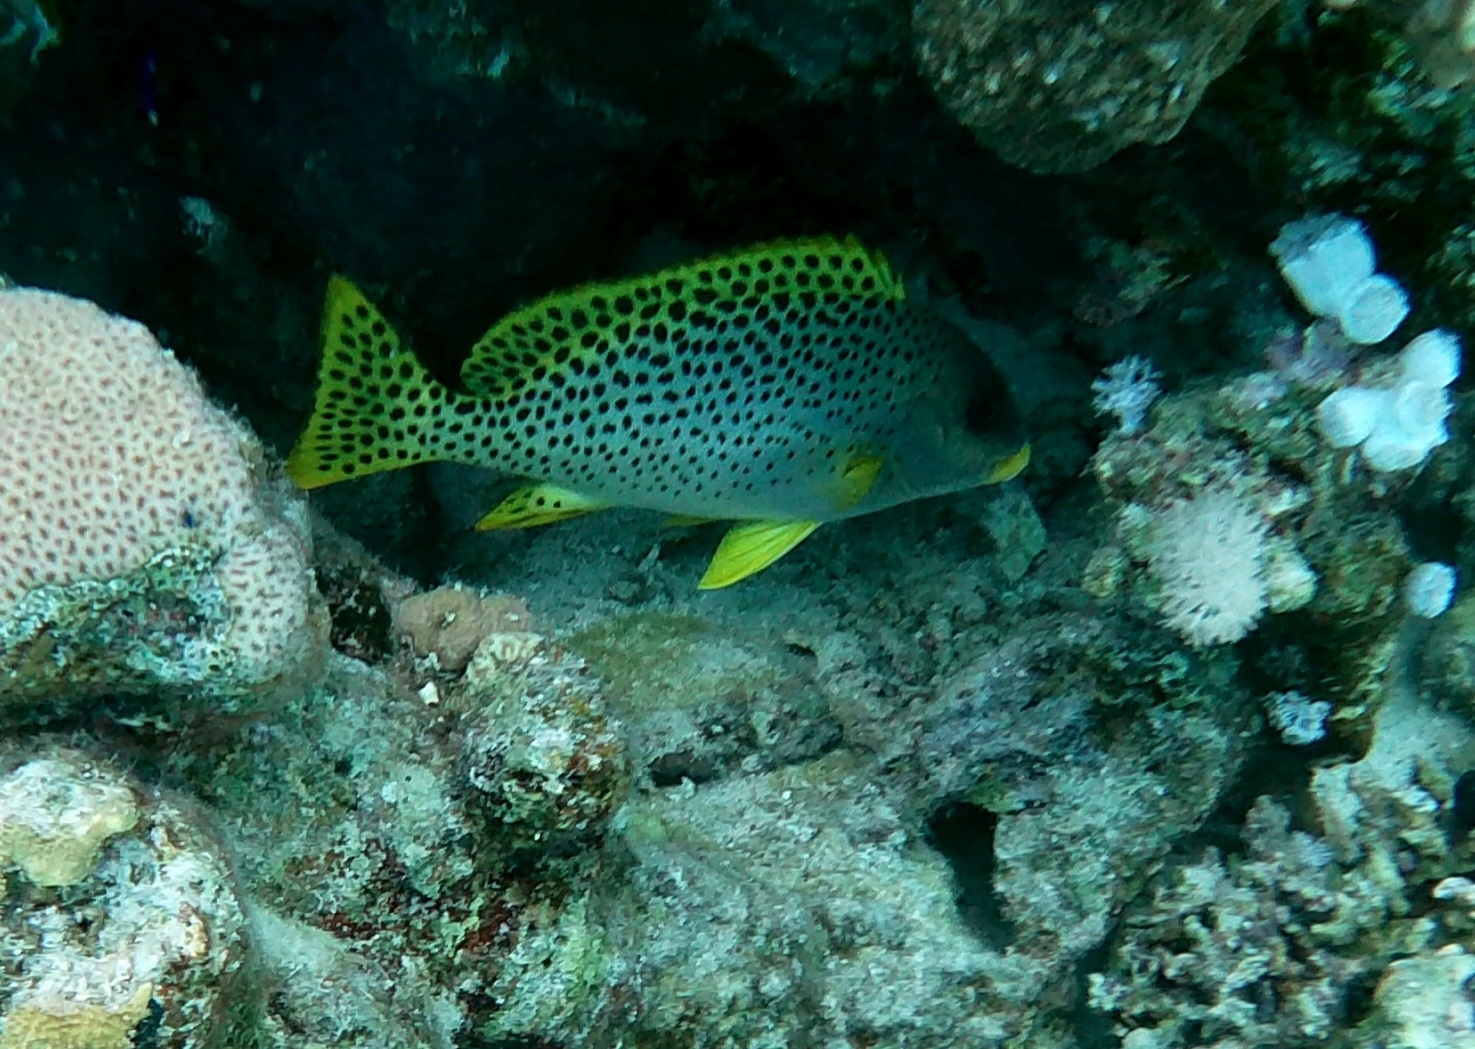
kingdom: Animalia
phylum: Chordata
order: Perciformes
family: Haemulidae
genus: Plectorhinchus
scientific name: Plectorhinchus gaterinus
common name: Blackspotted rubberlip
